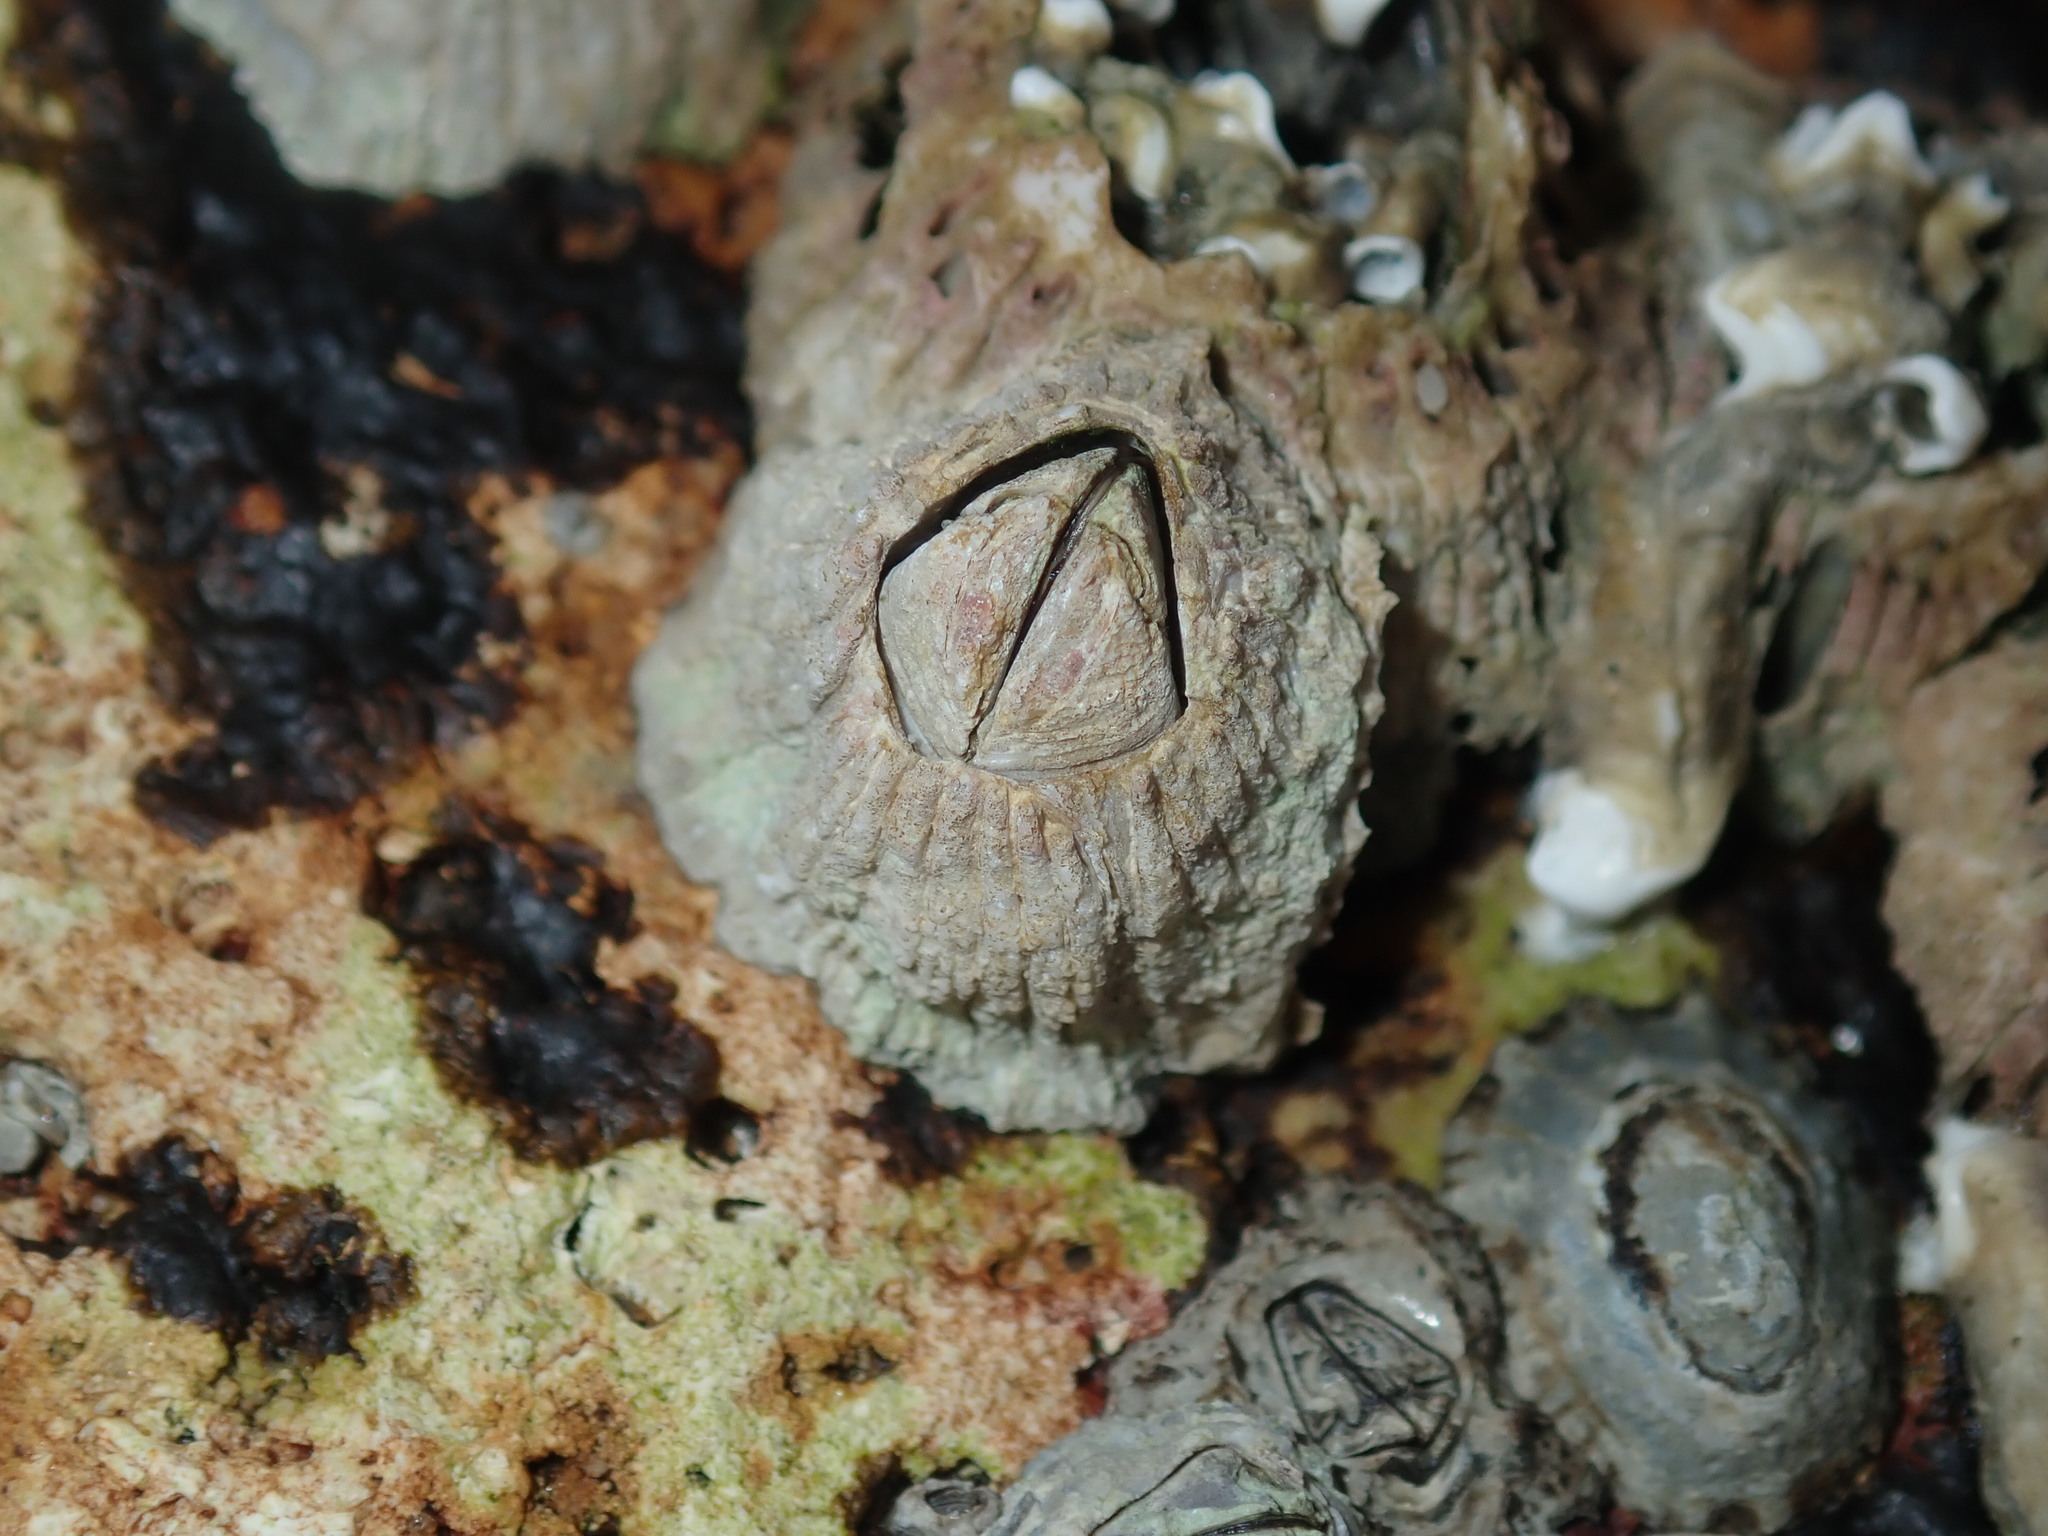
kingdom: Animalia
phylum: Arthropoda
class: Maxillopoda
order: Sessilia
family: Tetraclitidae
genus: Tesseropora
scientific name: Tesseropora rosea
